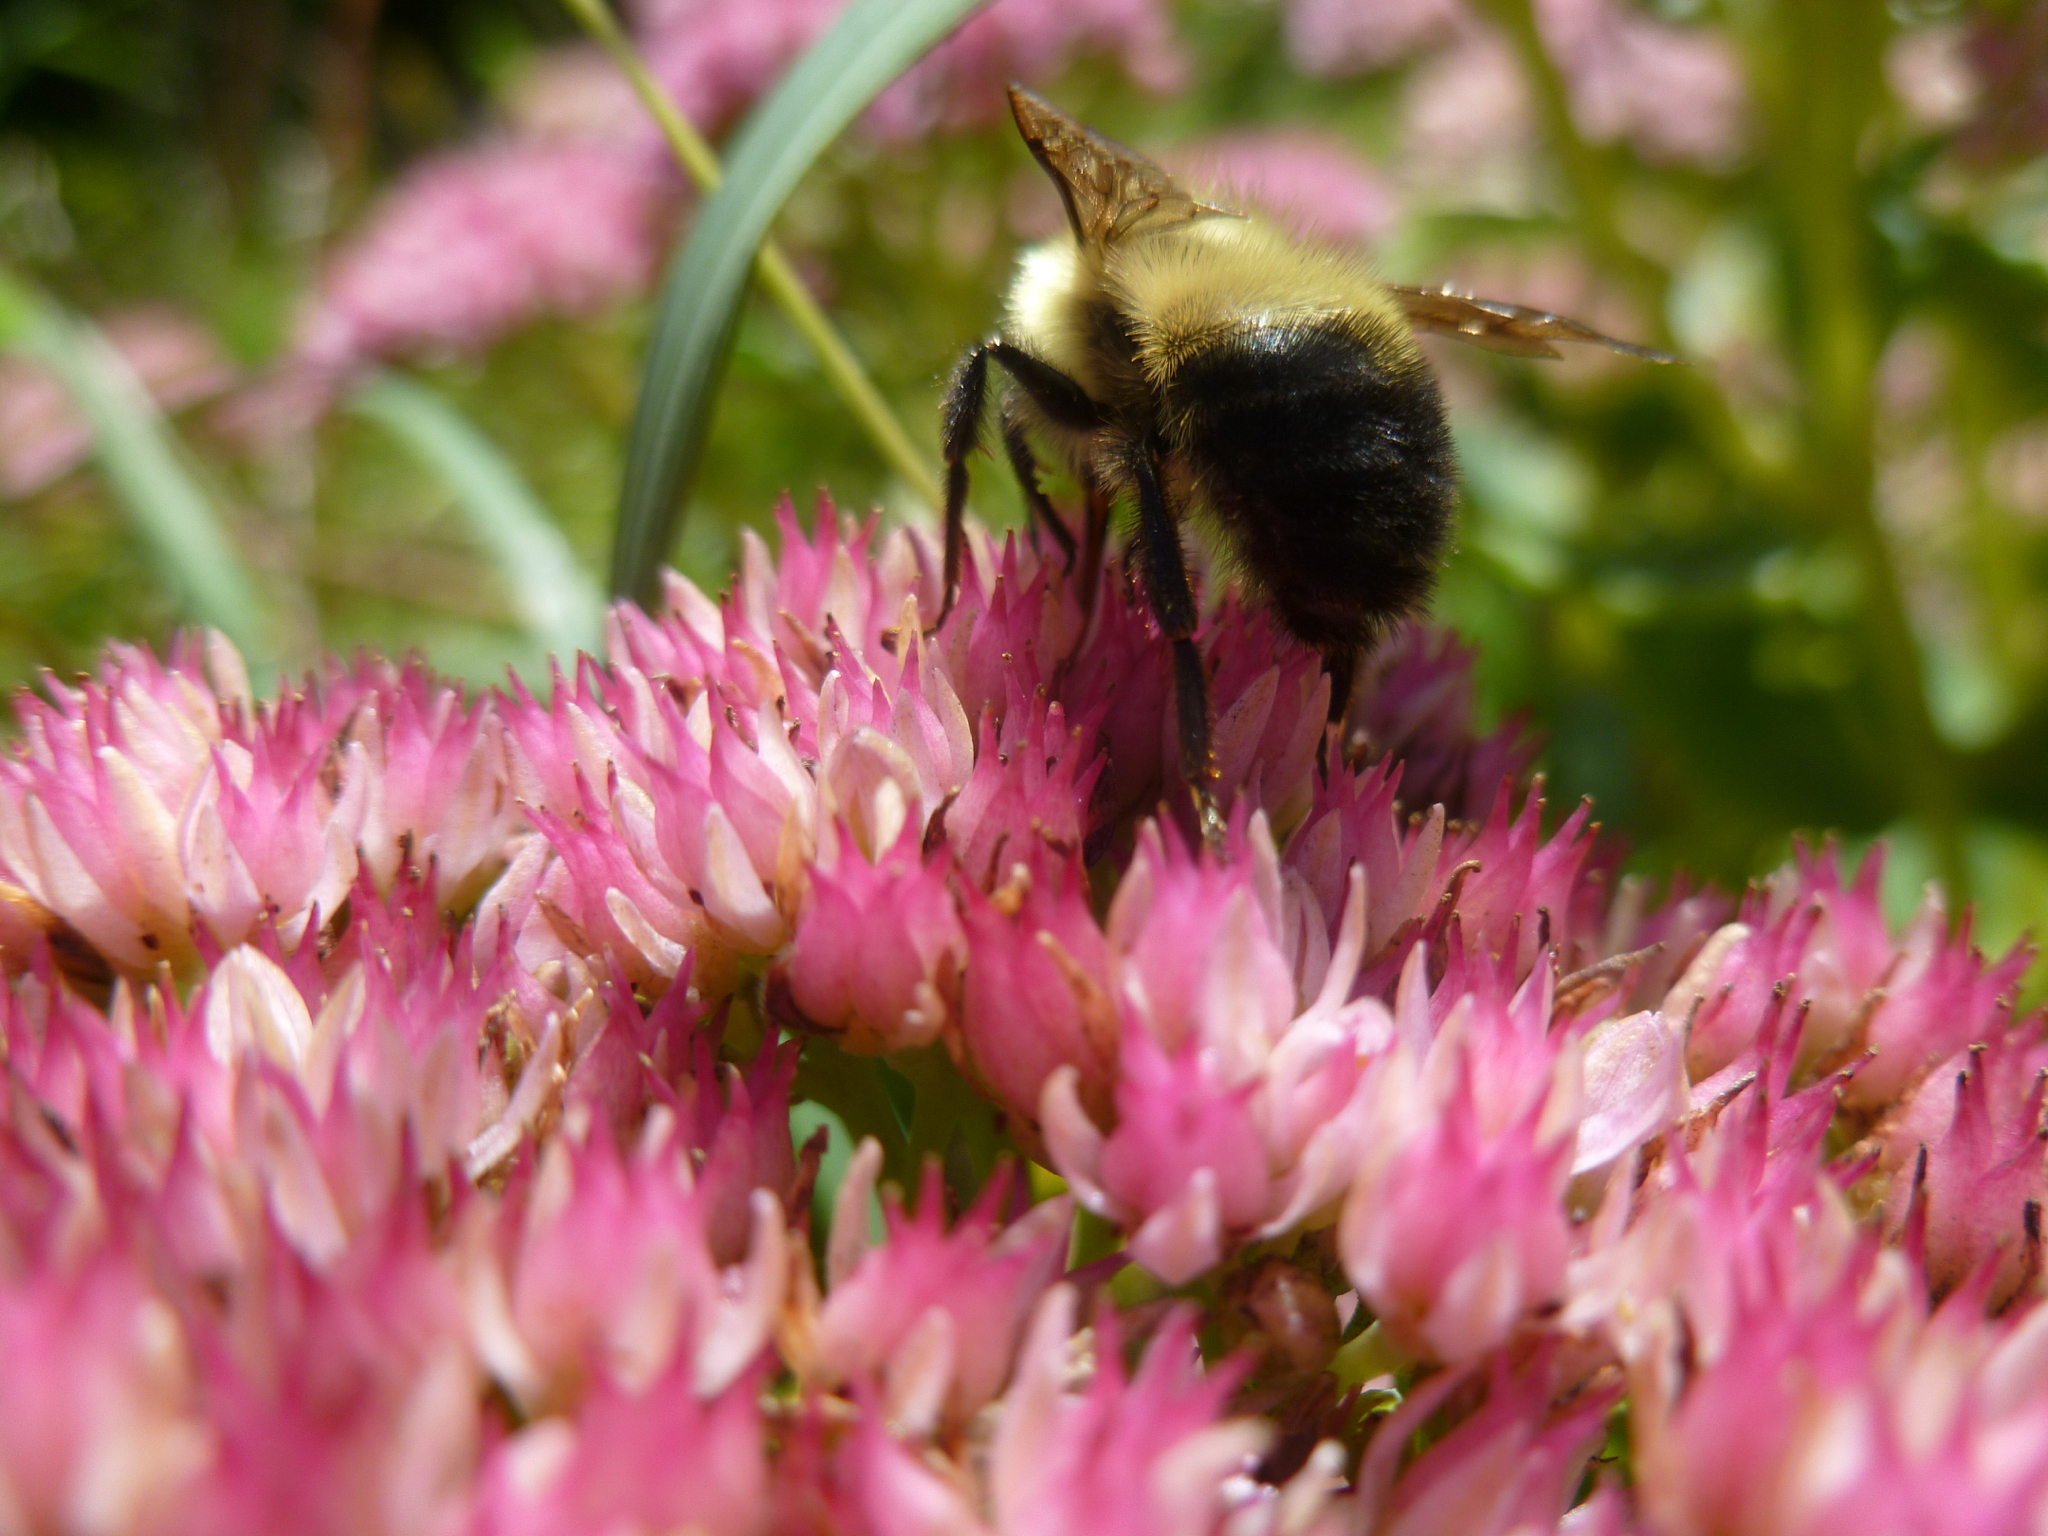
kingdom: Animalia
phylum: Arthropoda
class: Insecta
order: Hymenoptera
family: Apidae
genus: Pyrobombus
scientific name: Pyrobombus
